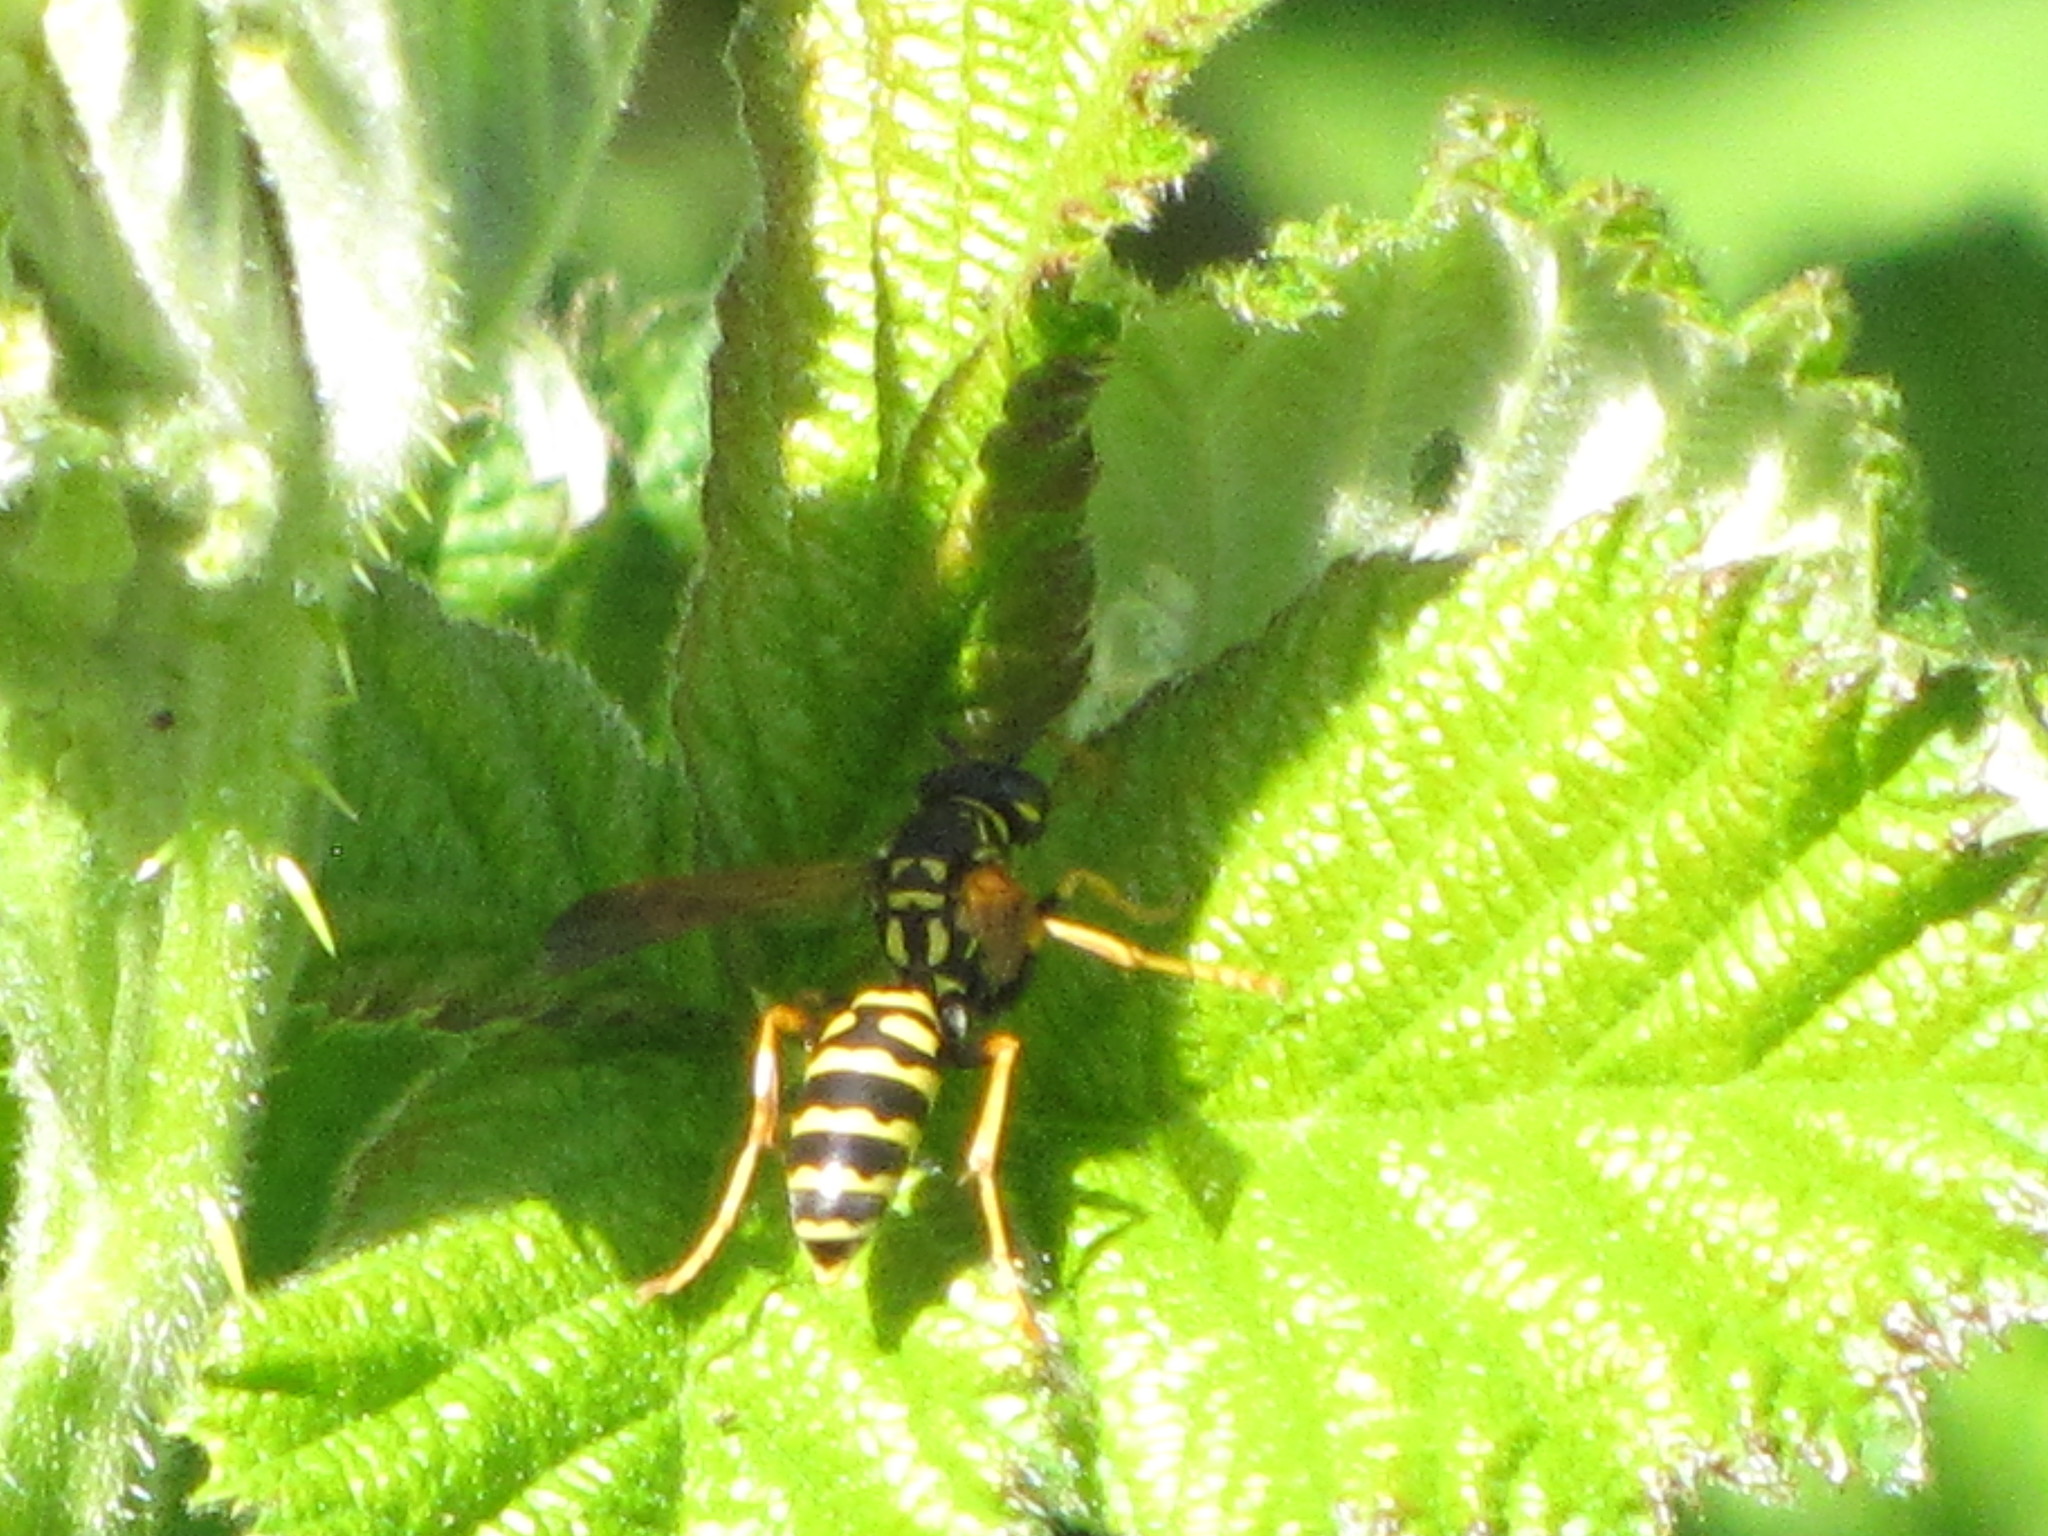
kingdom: Animalia
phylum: Arthropoda
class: Insecta
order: Hymenoptera
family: Eumenidae
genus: Polistes
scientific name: Polistes dominula
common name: Paper wasp
